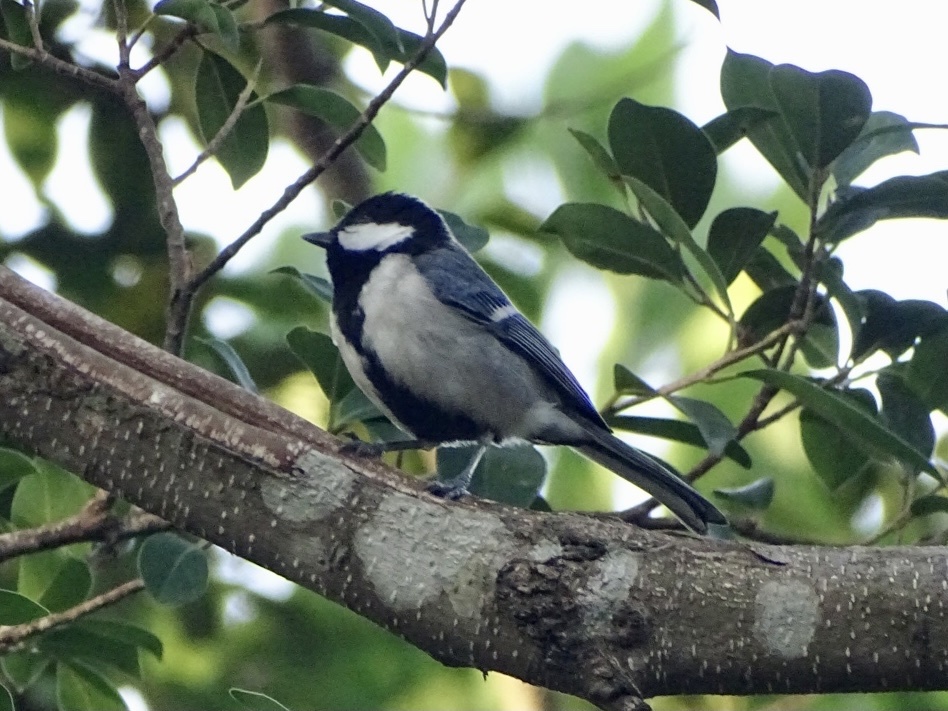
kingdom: Animalia
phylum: Chordata
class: Aves
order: Passeriformes
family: Paridae
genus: Parus
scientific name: Parus minor
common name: Japanese tit
